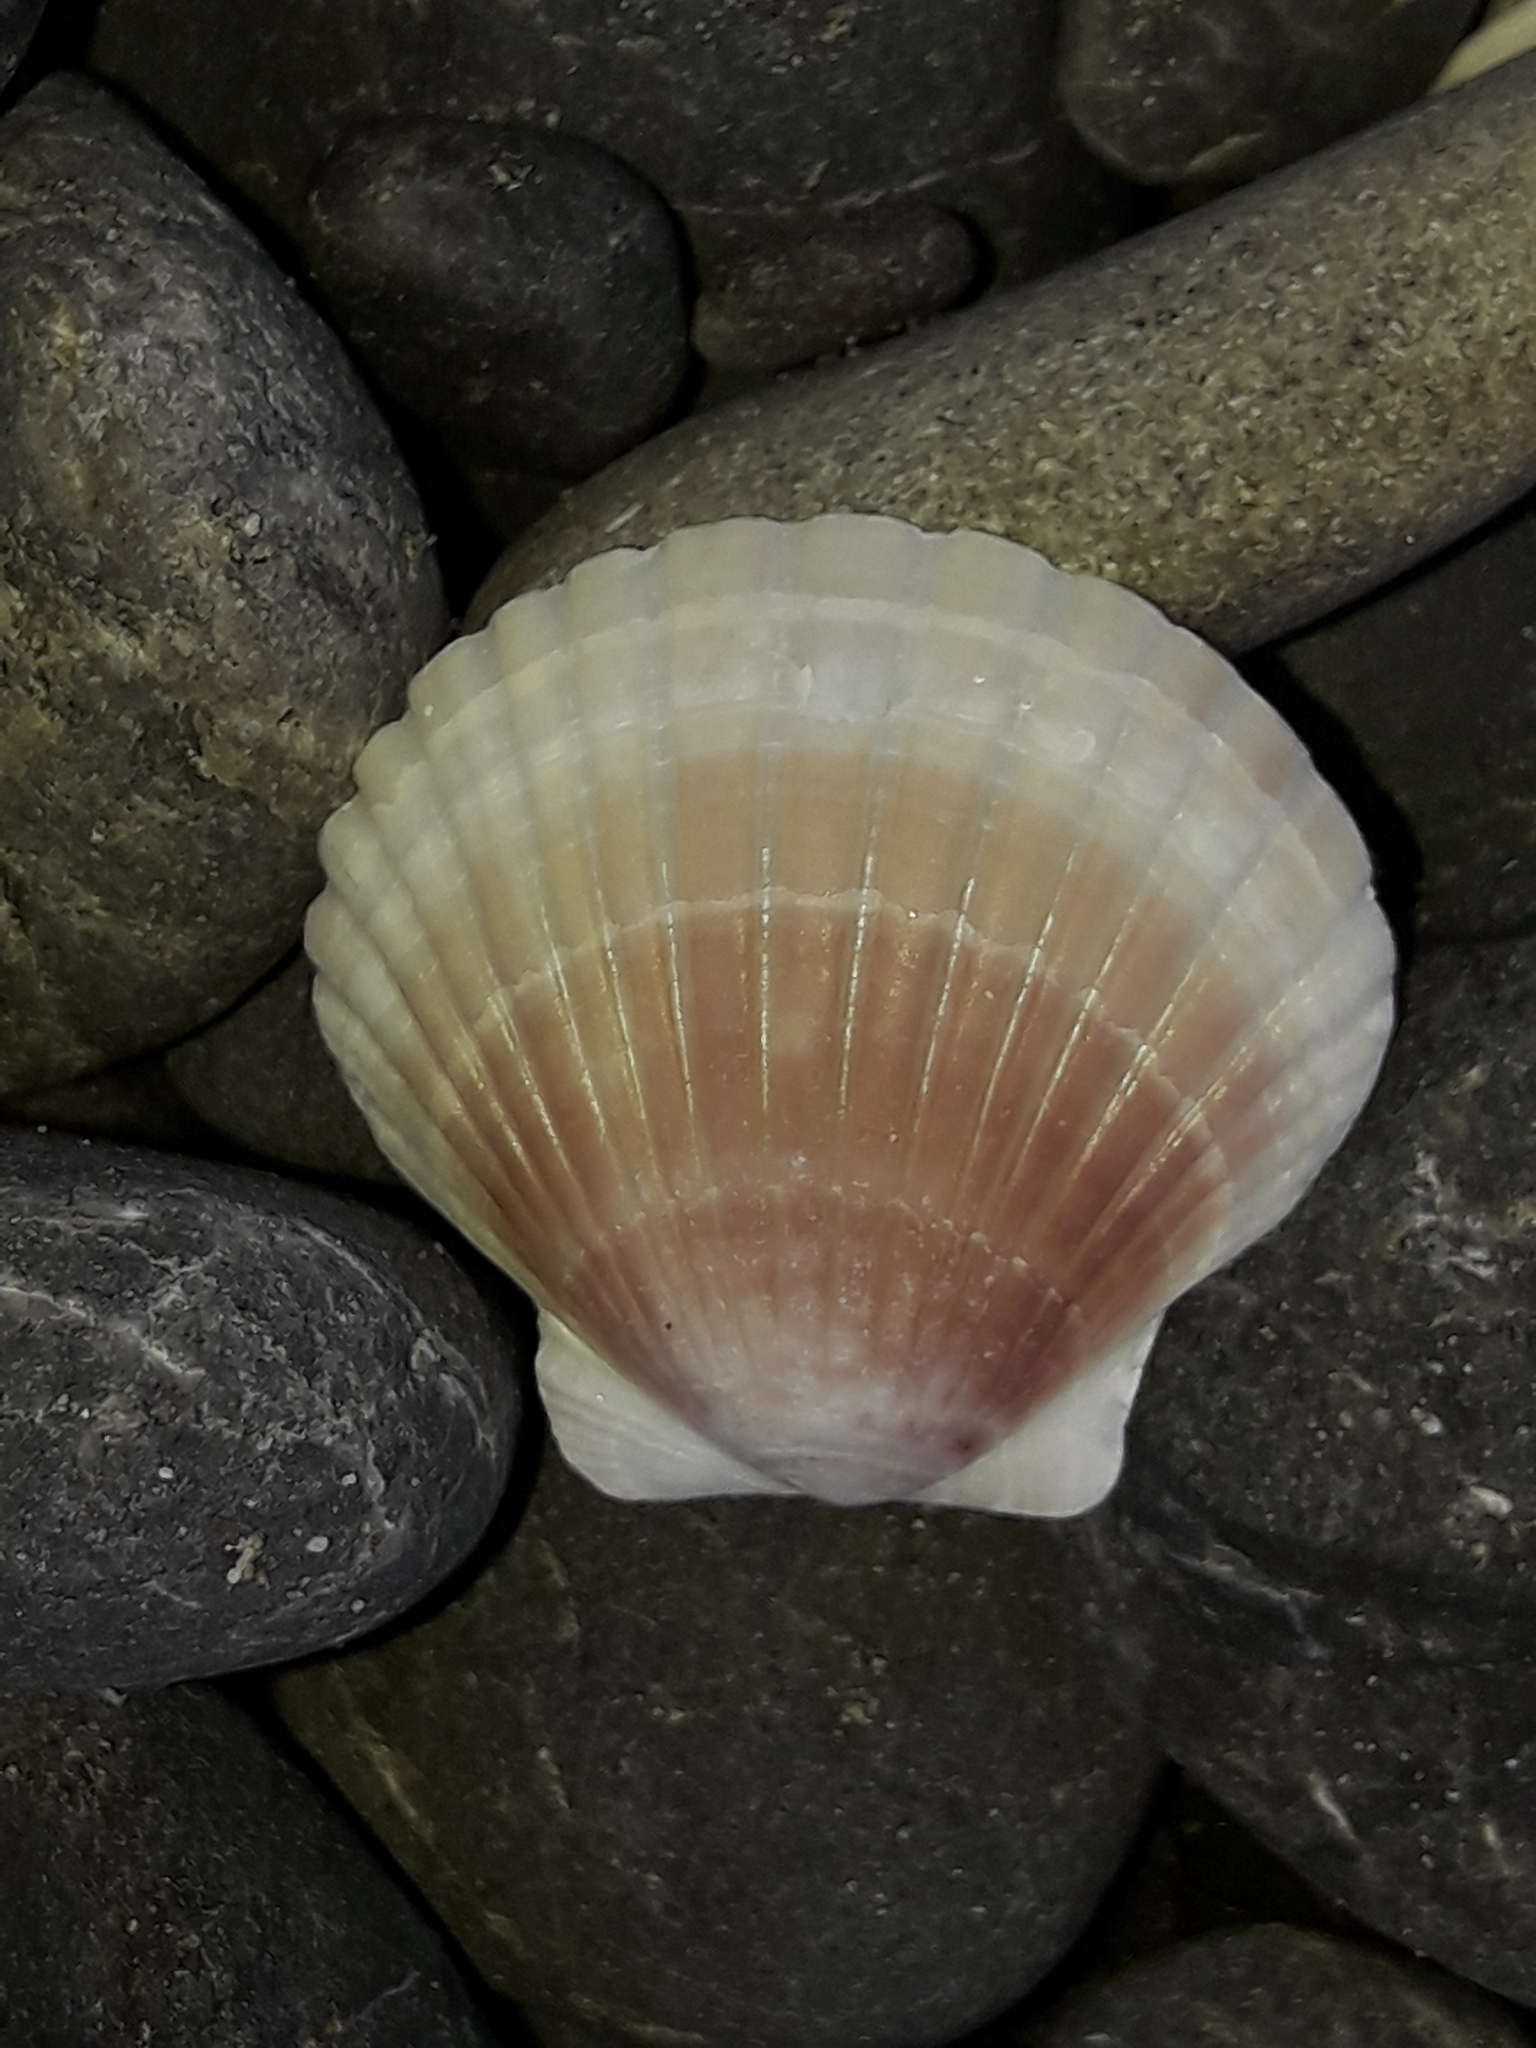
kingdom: Animalia
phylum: Mollusca
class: Bivalvia
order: Pectinida
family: Pectinidae
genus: Pecten
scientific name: Pecten novaezelandiae
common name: New zealand scallop
